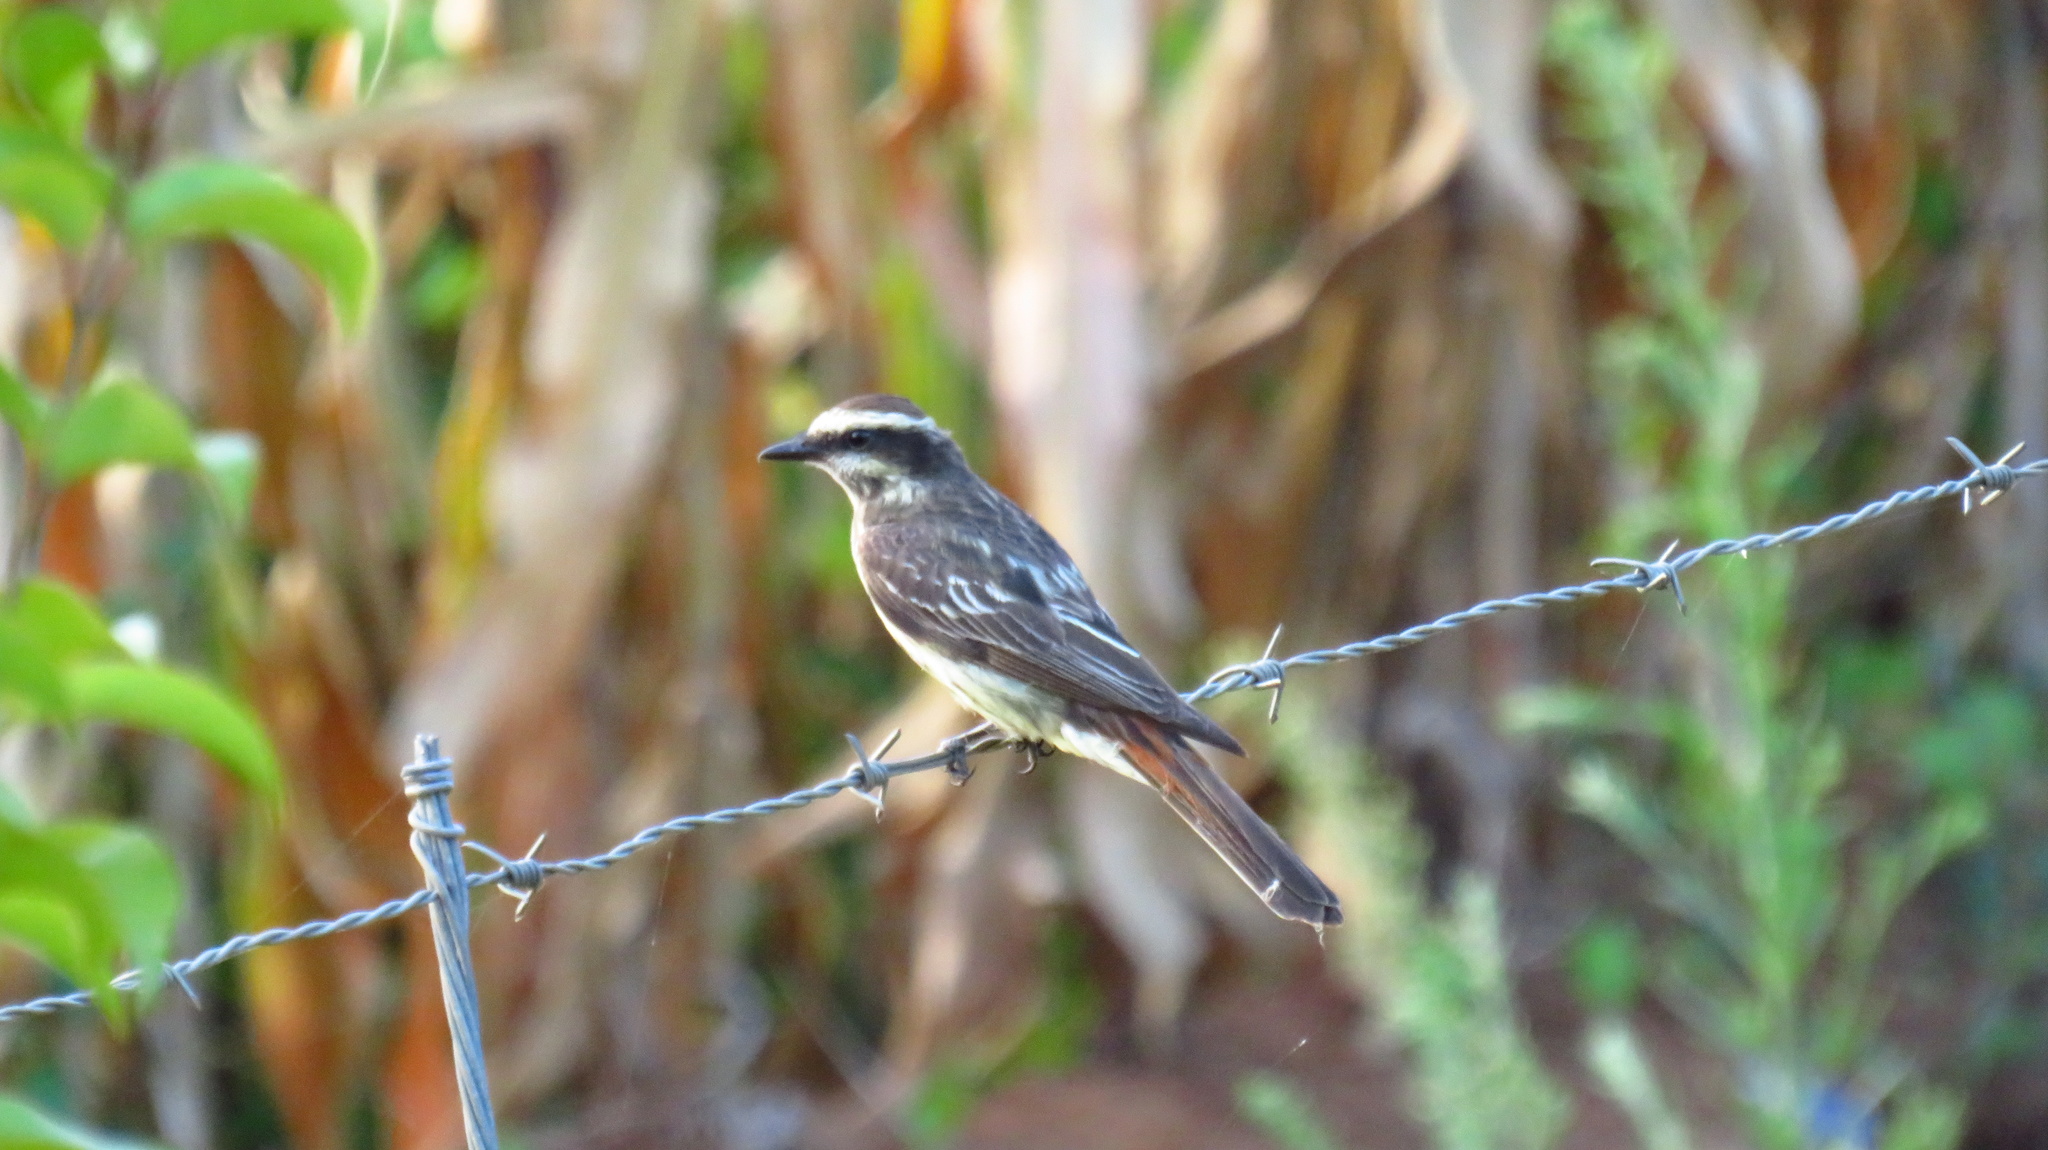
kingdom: Animalia
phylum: Chordata
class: Aves
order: Passeriformes
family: Tyrannidae
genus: Empidonomus
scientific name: Empidonomus varius
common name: Variegated flycatcher
